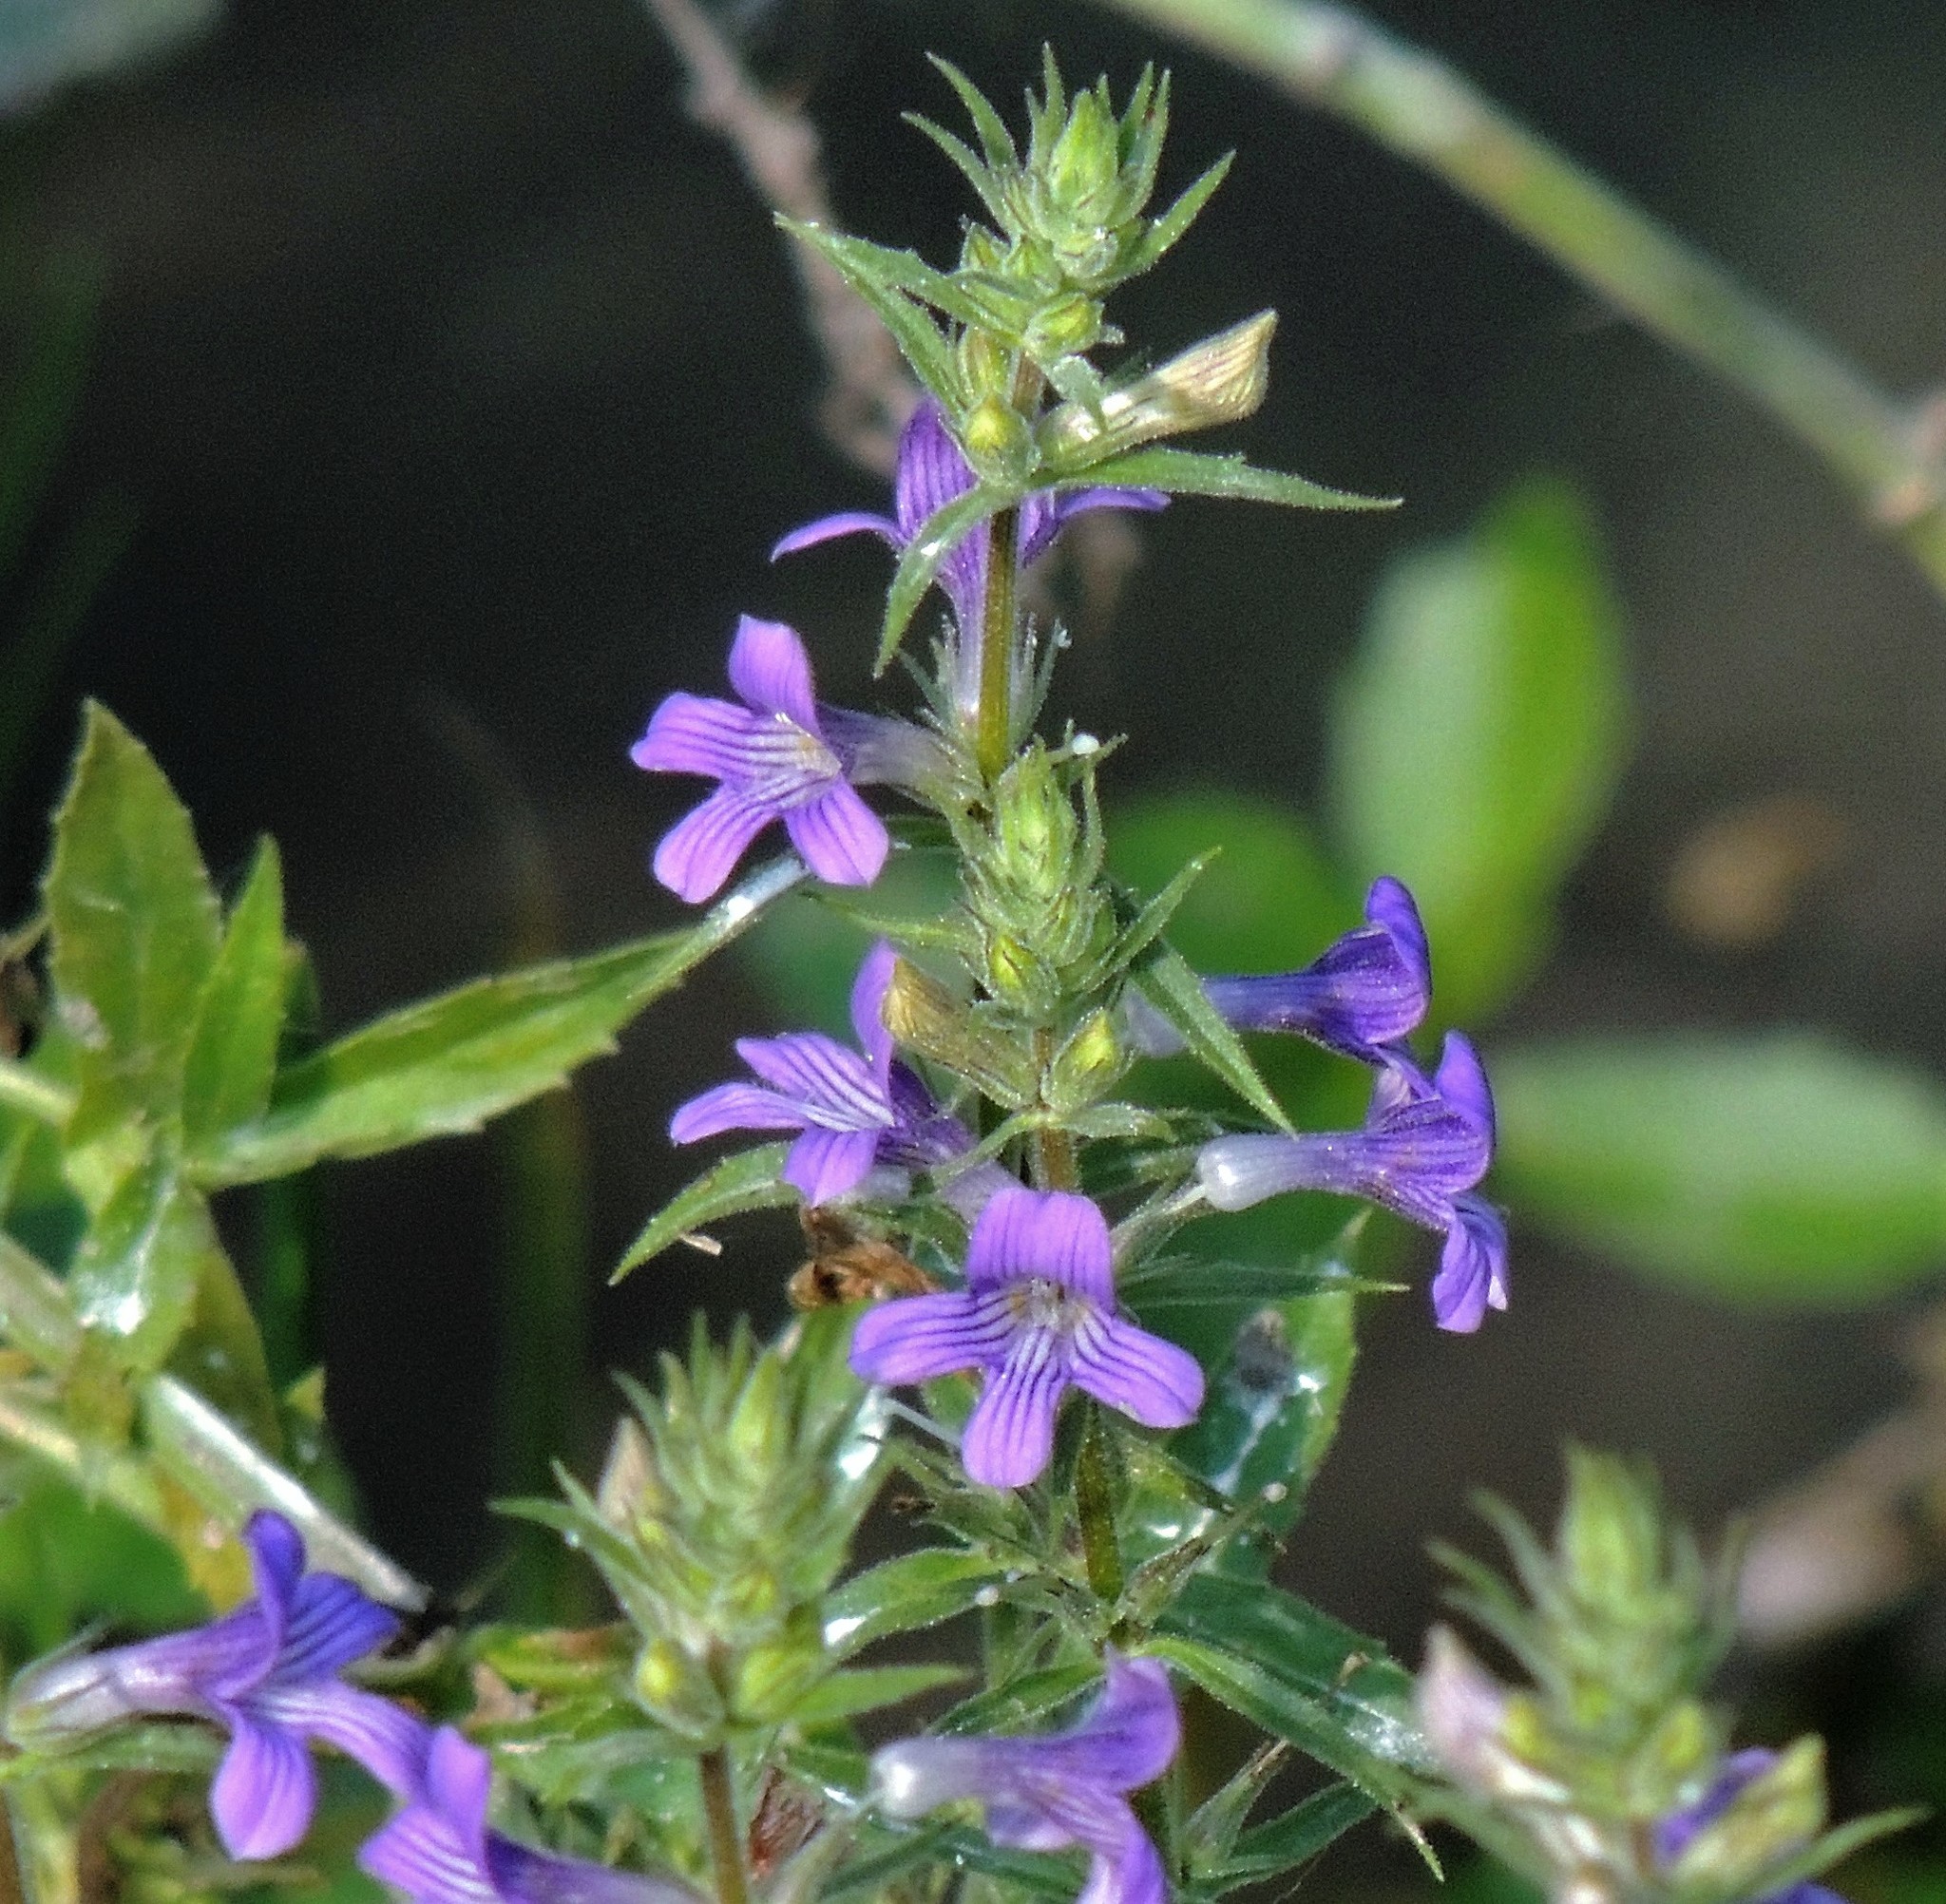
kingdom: Plantae
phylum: Tracheophyta
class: Magnoliopsida
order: Lamiales
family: Plantaginaceae
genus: Stemodia
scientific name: Stemodia hyptoides
